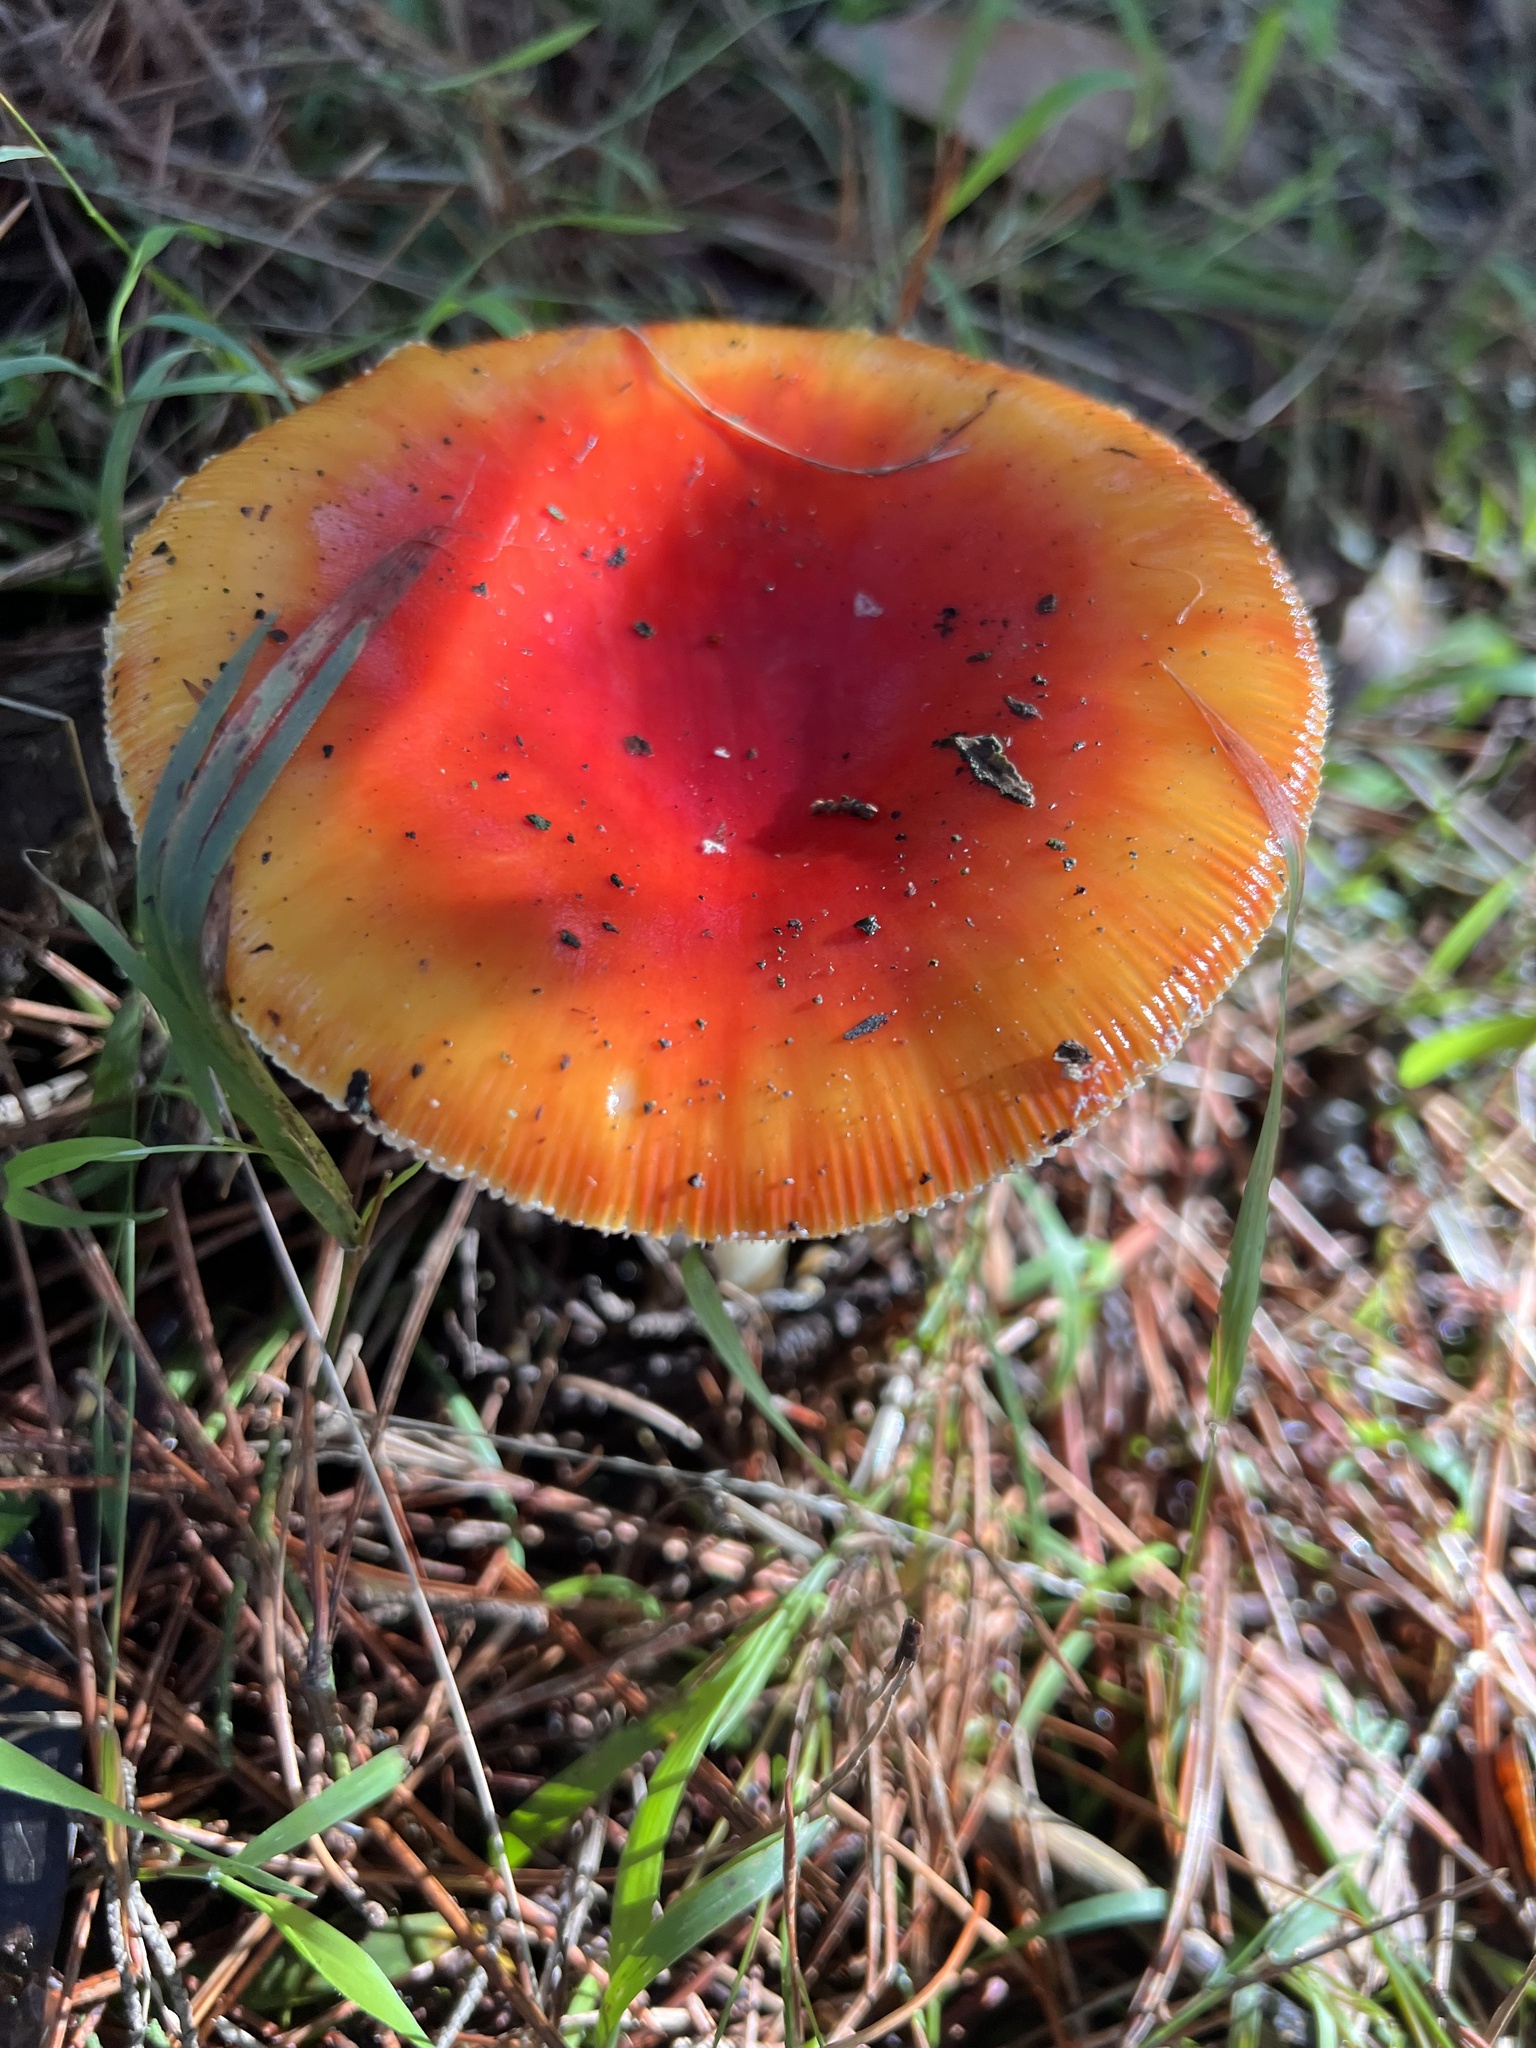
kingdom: Fungi
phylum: Basidiomycota
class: Agaricomycetes
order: Agaricales
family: Amanitaceae
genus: Amanita
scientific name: Amanita muscaria
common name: Fly agaric
